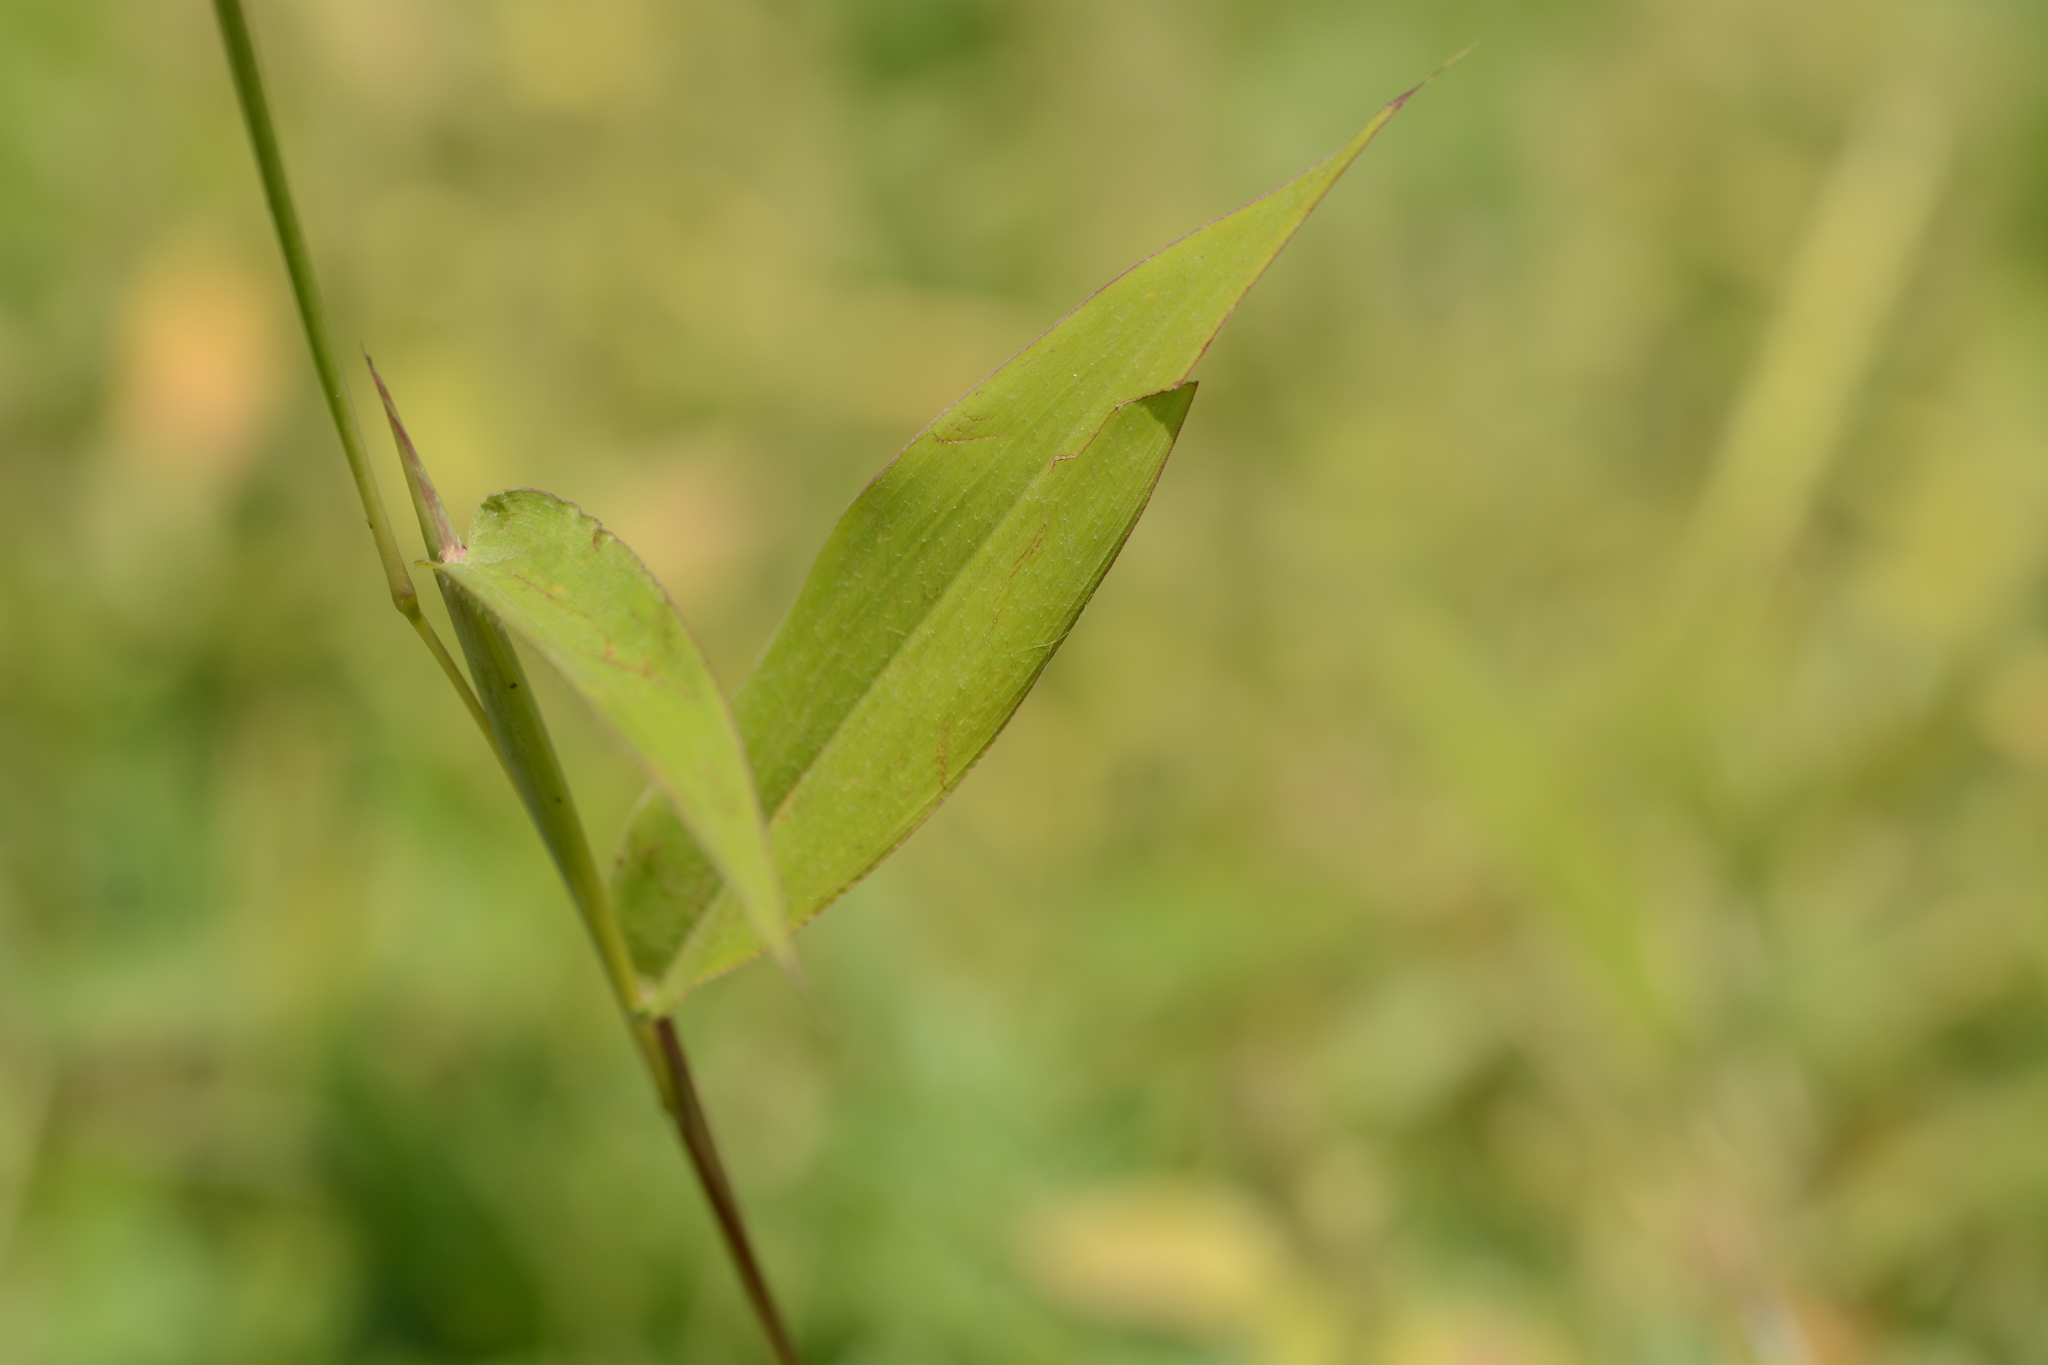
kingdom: Plantae
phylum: Tracheophyta
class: Liliopsida
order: Poales
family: Poaceae
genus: Ischaemum
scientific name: Ischaemum impressum
